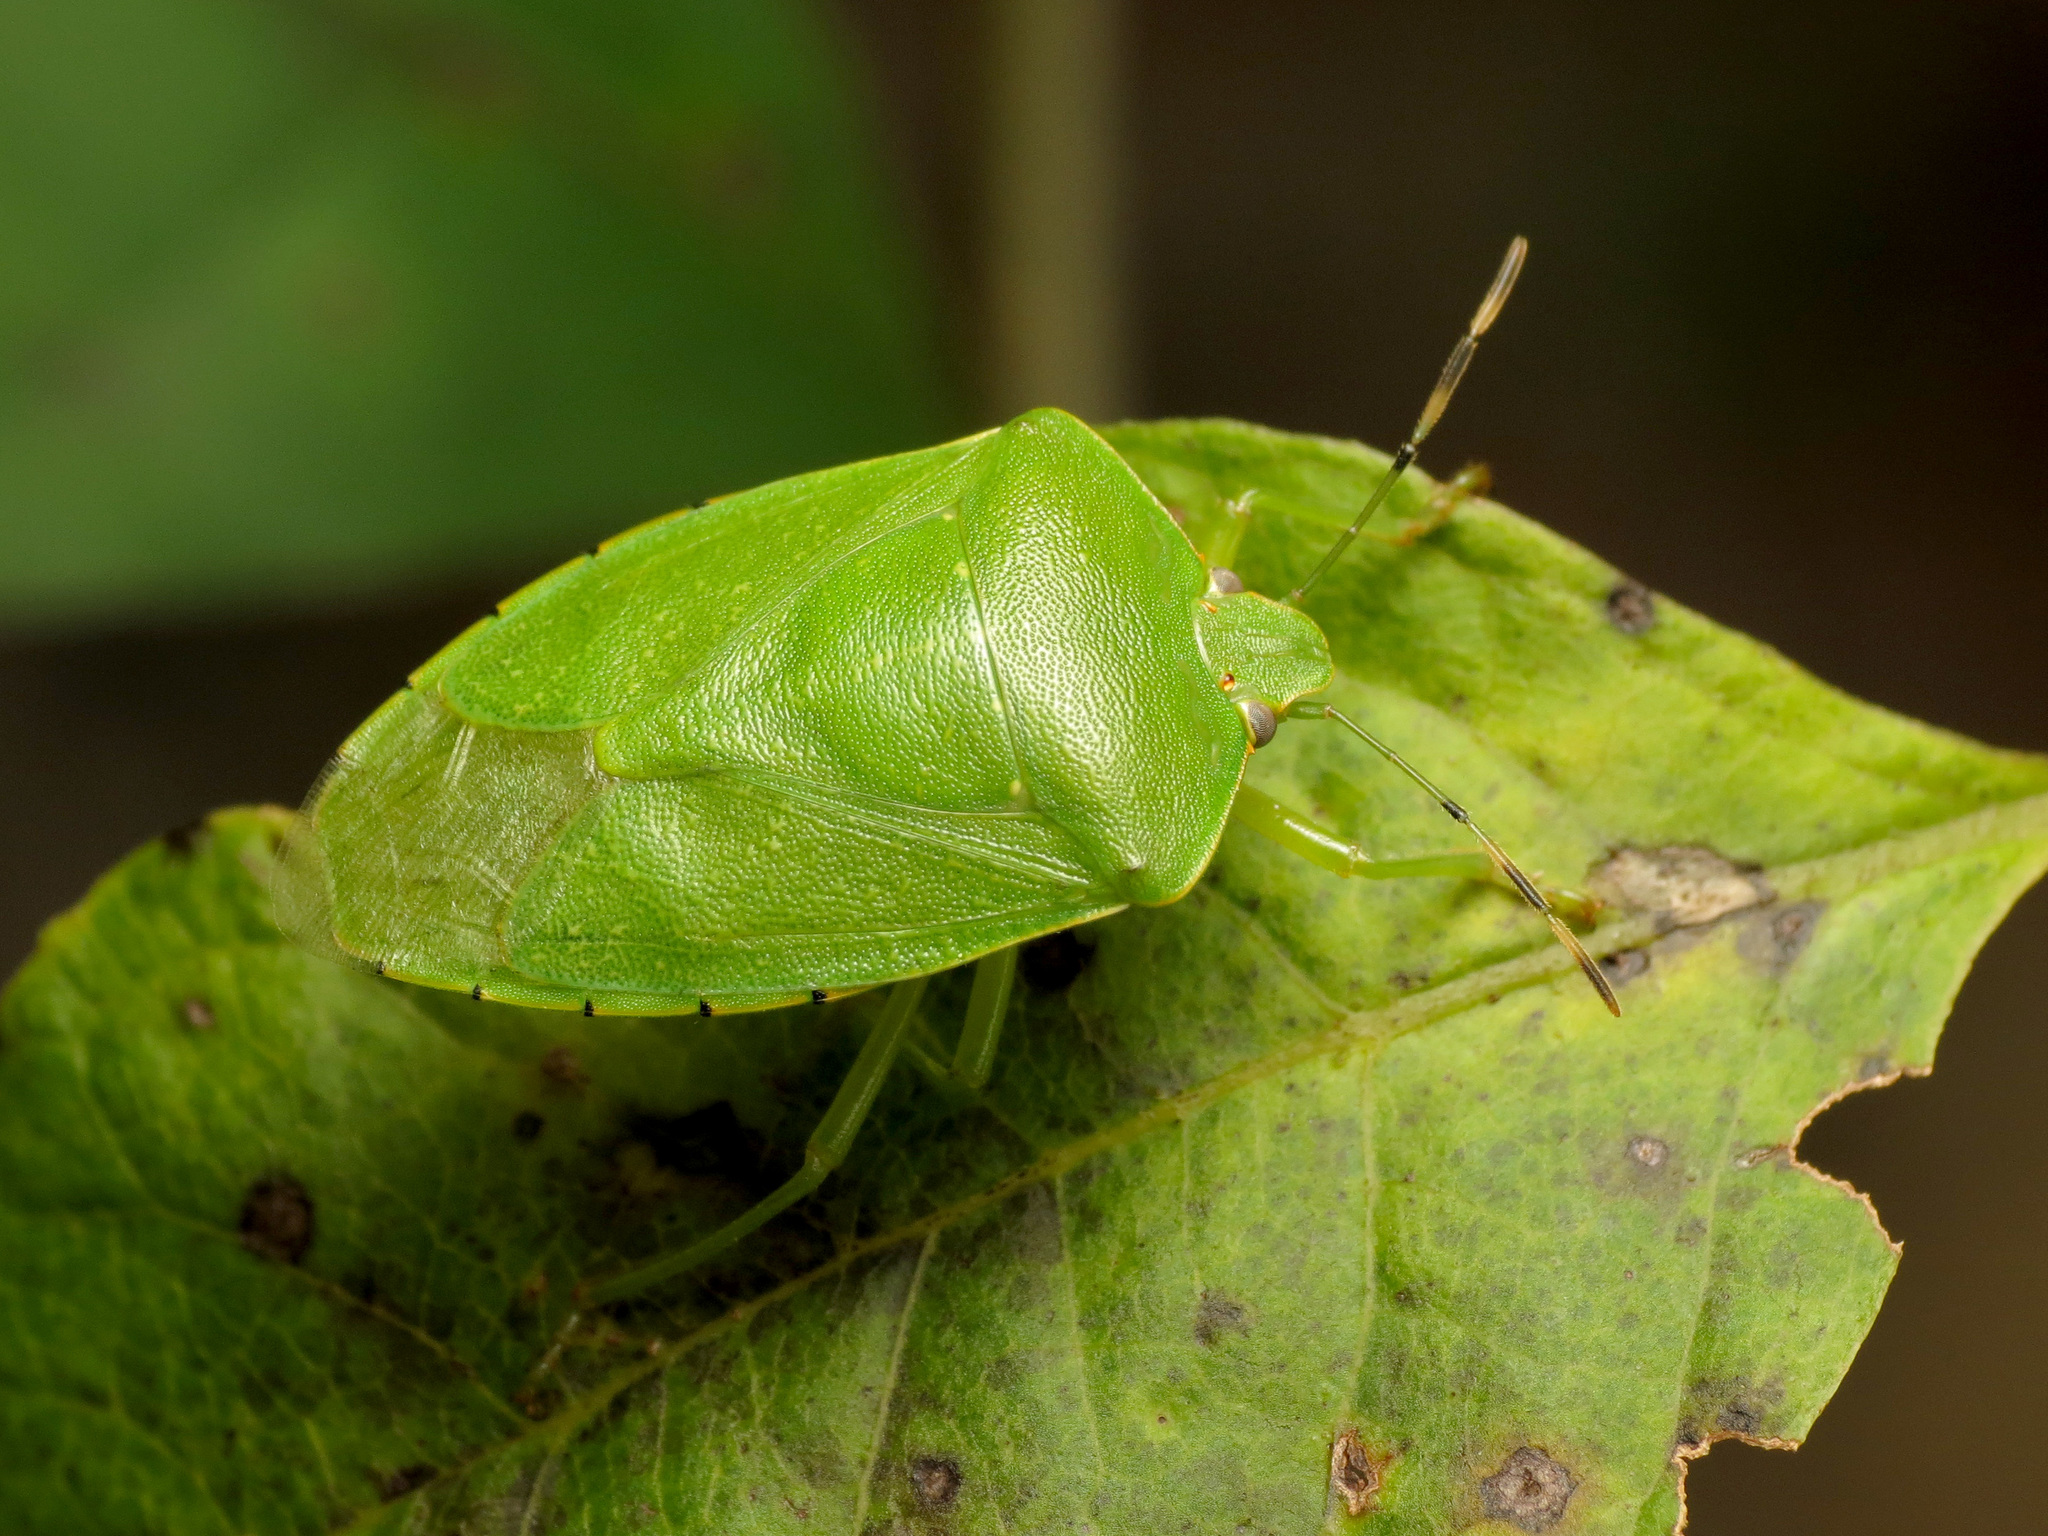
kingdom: Animalia
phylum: Arthropoda
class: Insecta
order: Hemiptera
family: Pentatomidae
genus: Chinavia
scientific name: Chinavia hilaris
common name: Green stink bug
